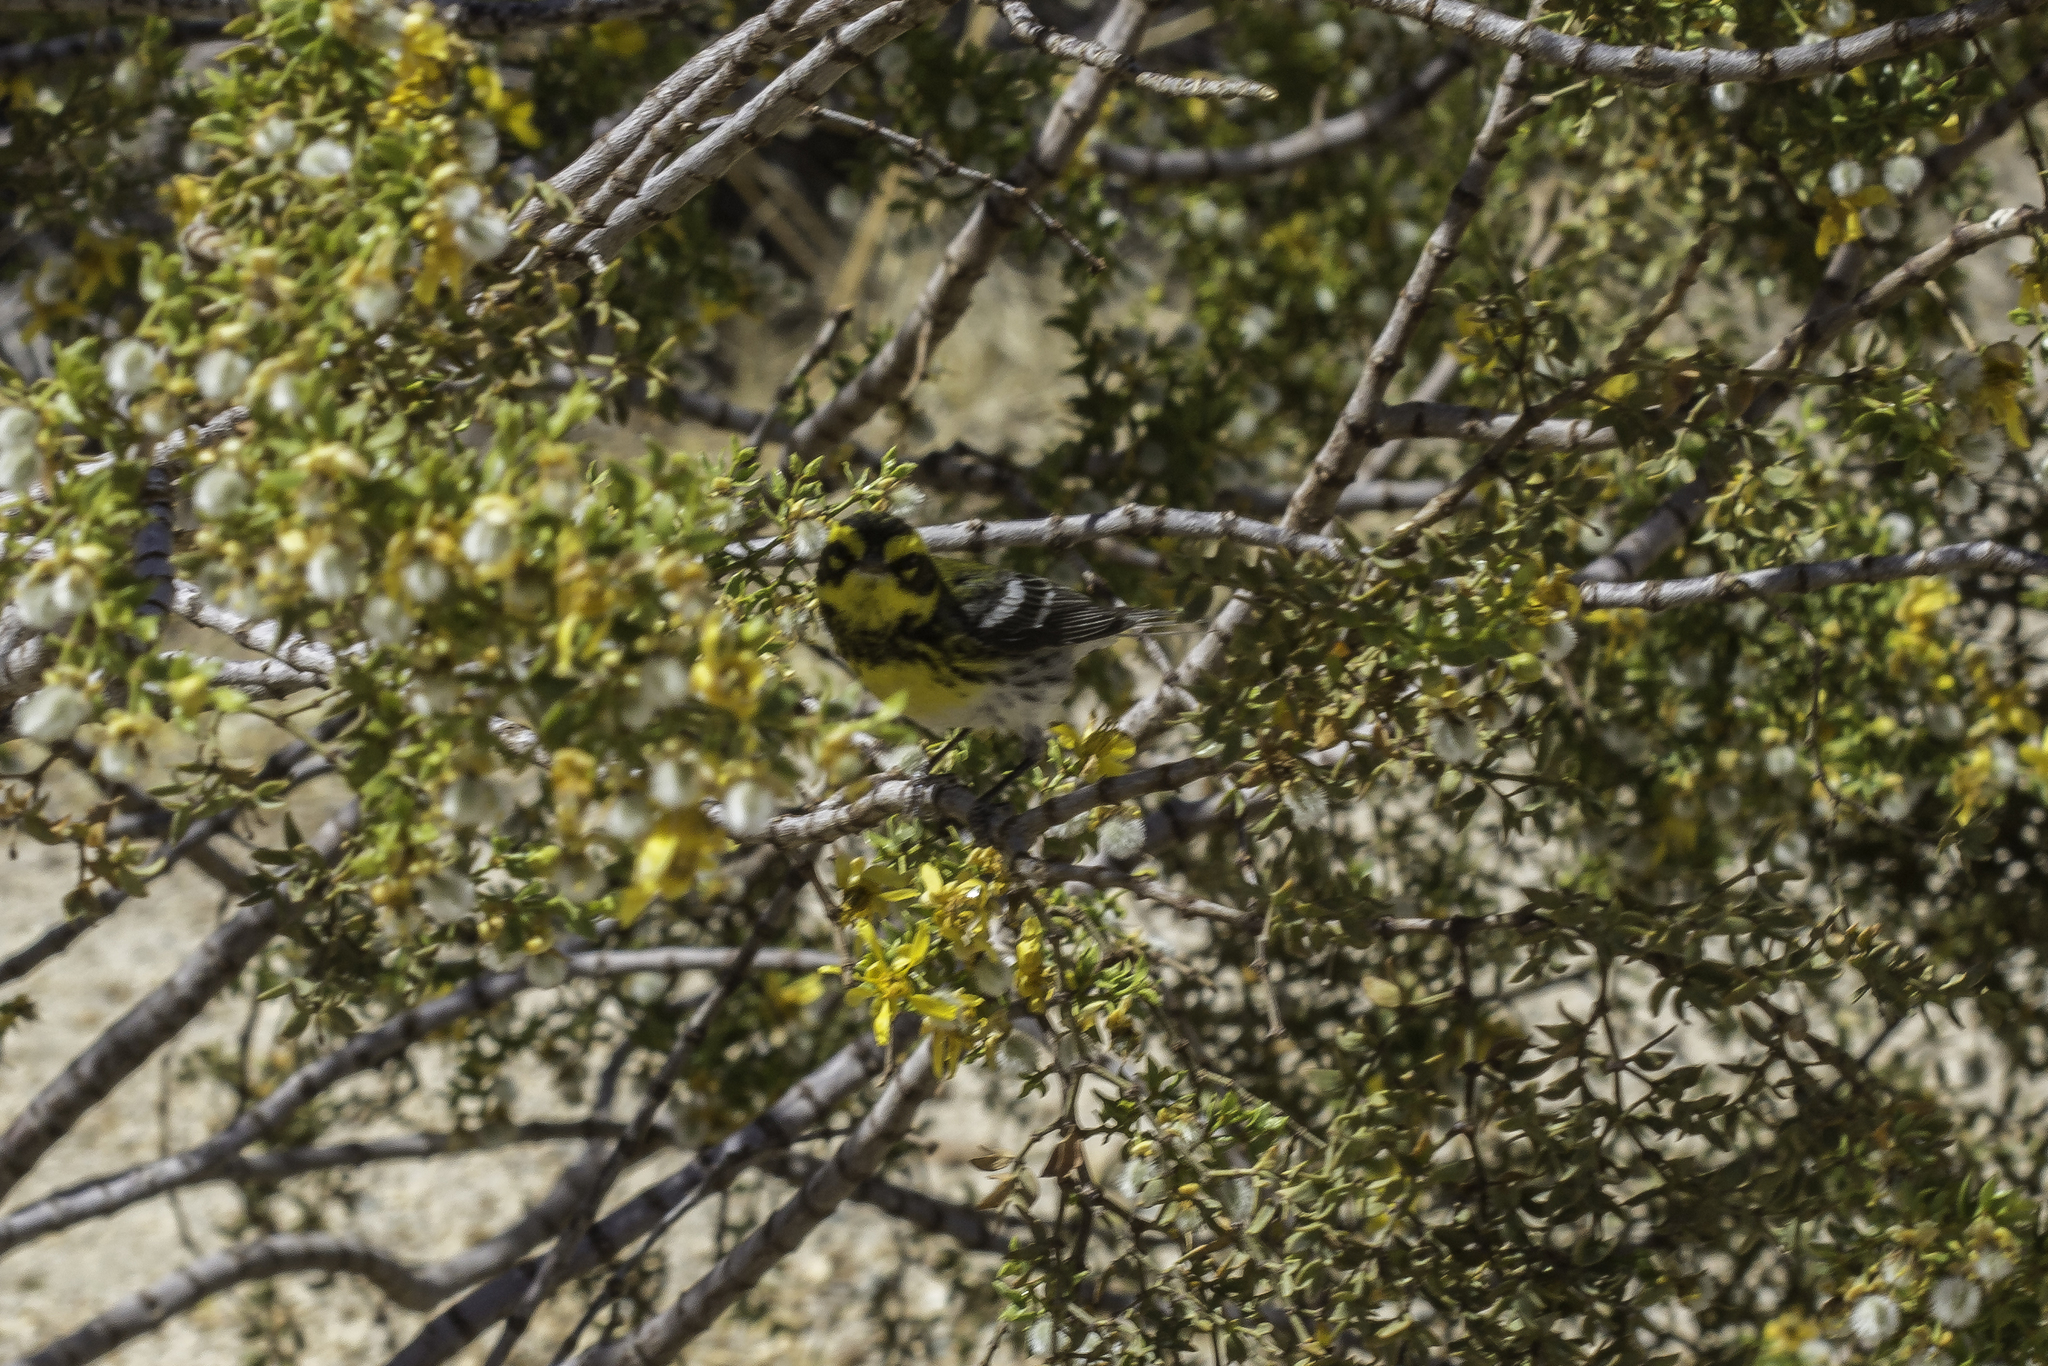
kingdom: Animalia
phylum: Chordata
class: Aves
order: Passeriformes
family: Parulidae
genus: Setophaga
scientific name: Setophaga townsendi
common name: Townsend's warbler
